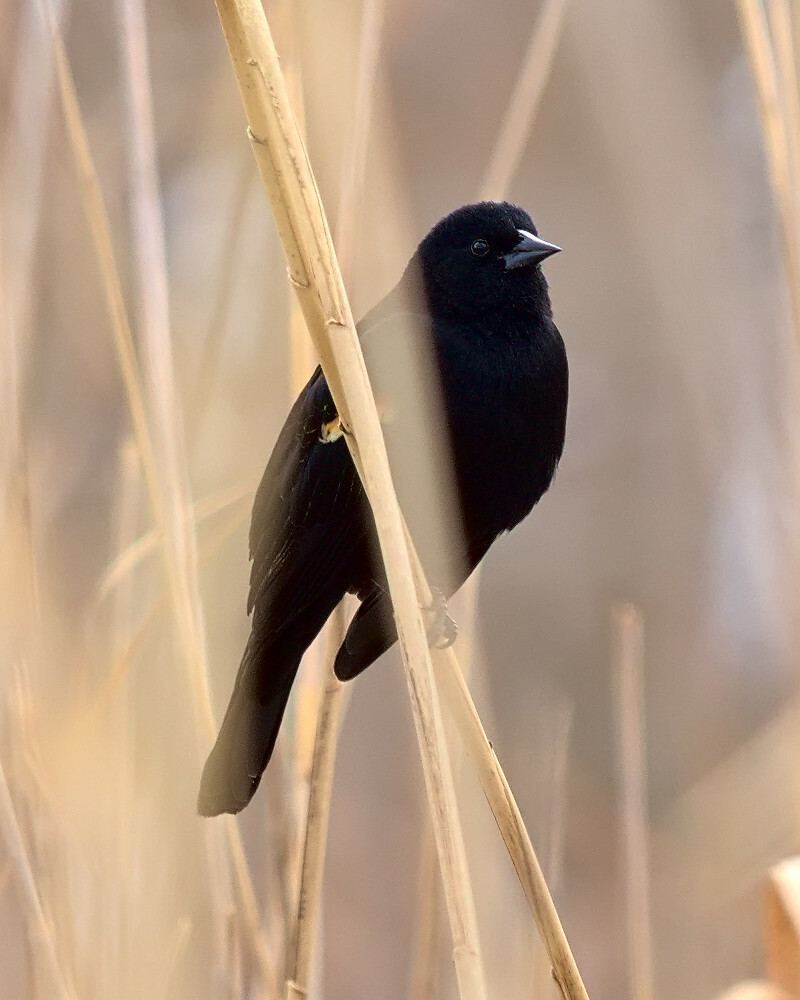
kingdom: Animalia
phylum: Chordata
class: Aves
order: Passeriformes
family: Icteridae
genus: Agelaius
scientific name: Agelaius phoeniceus
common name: Red-winged blackbird
